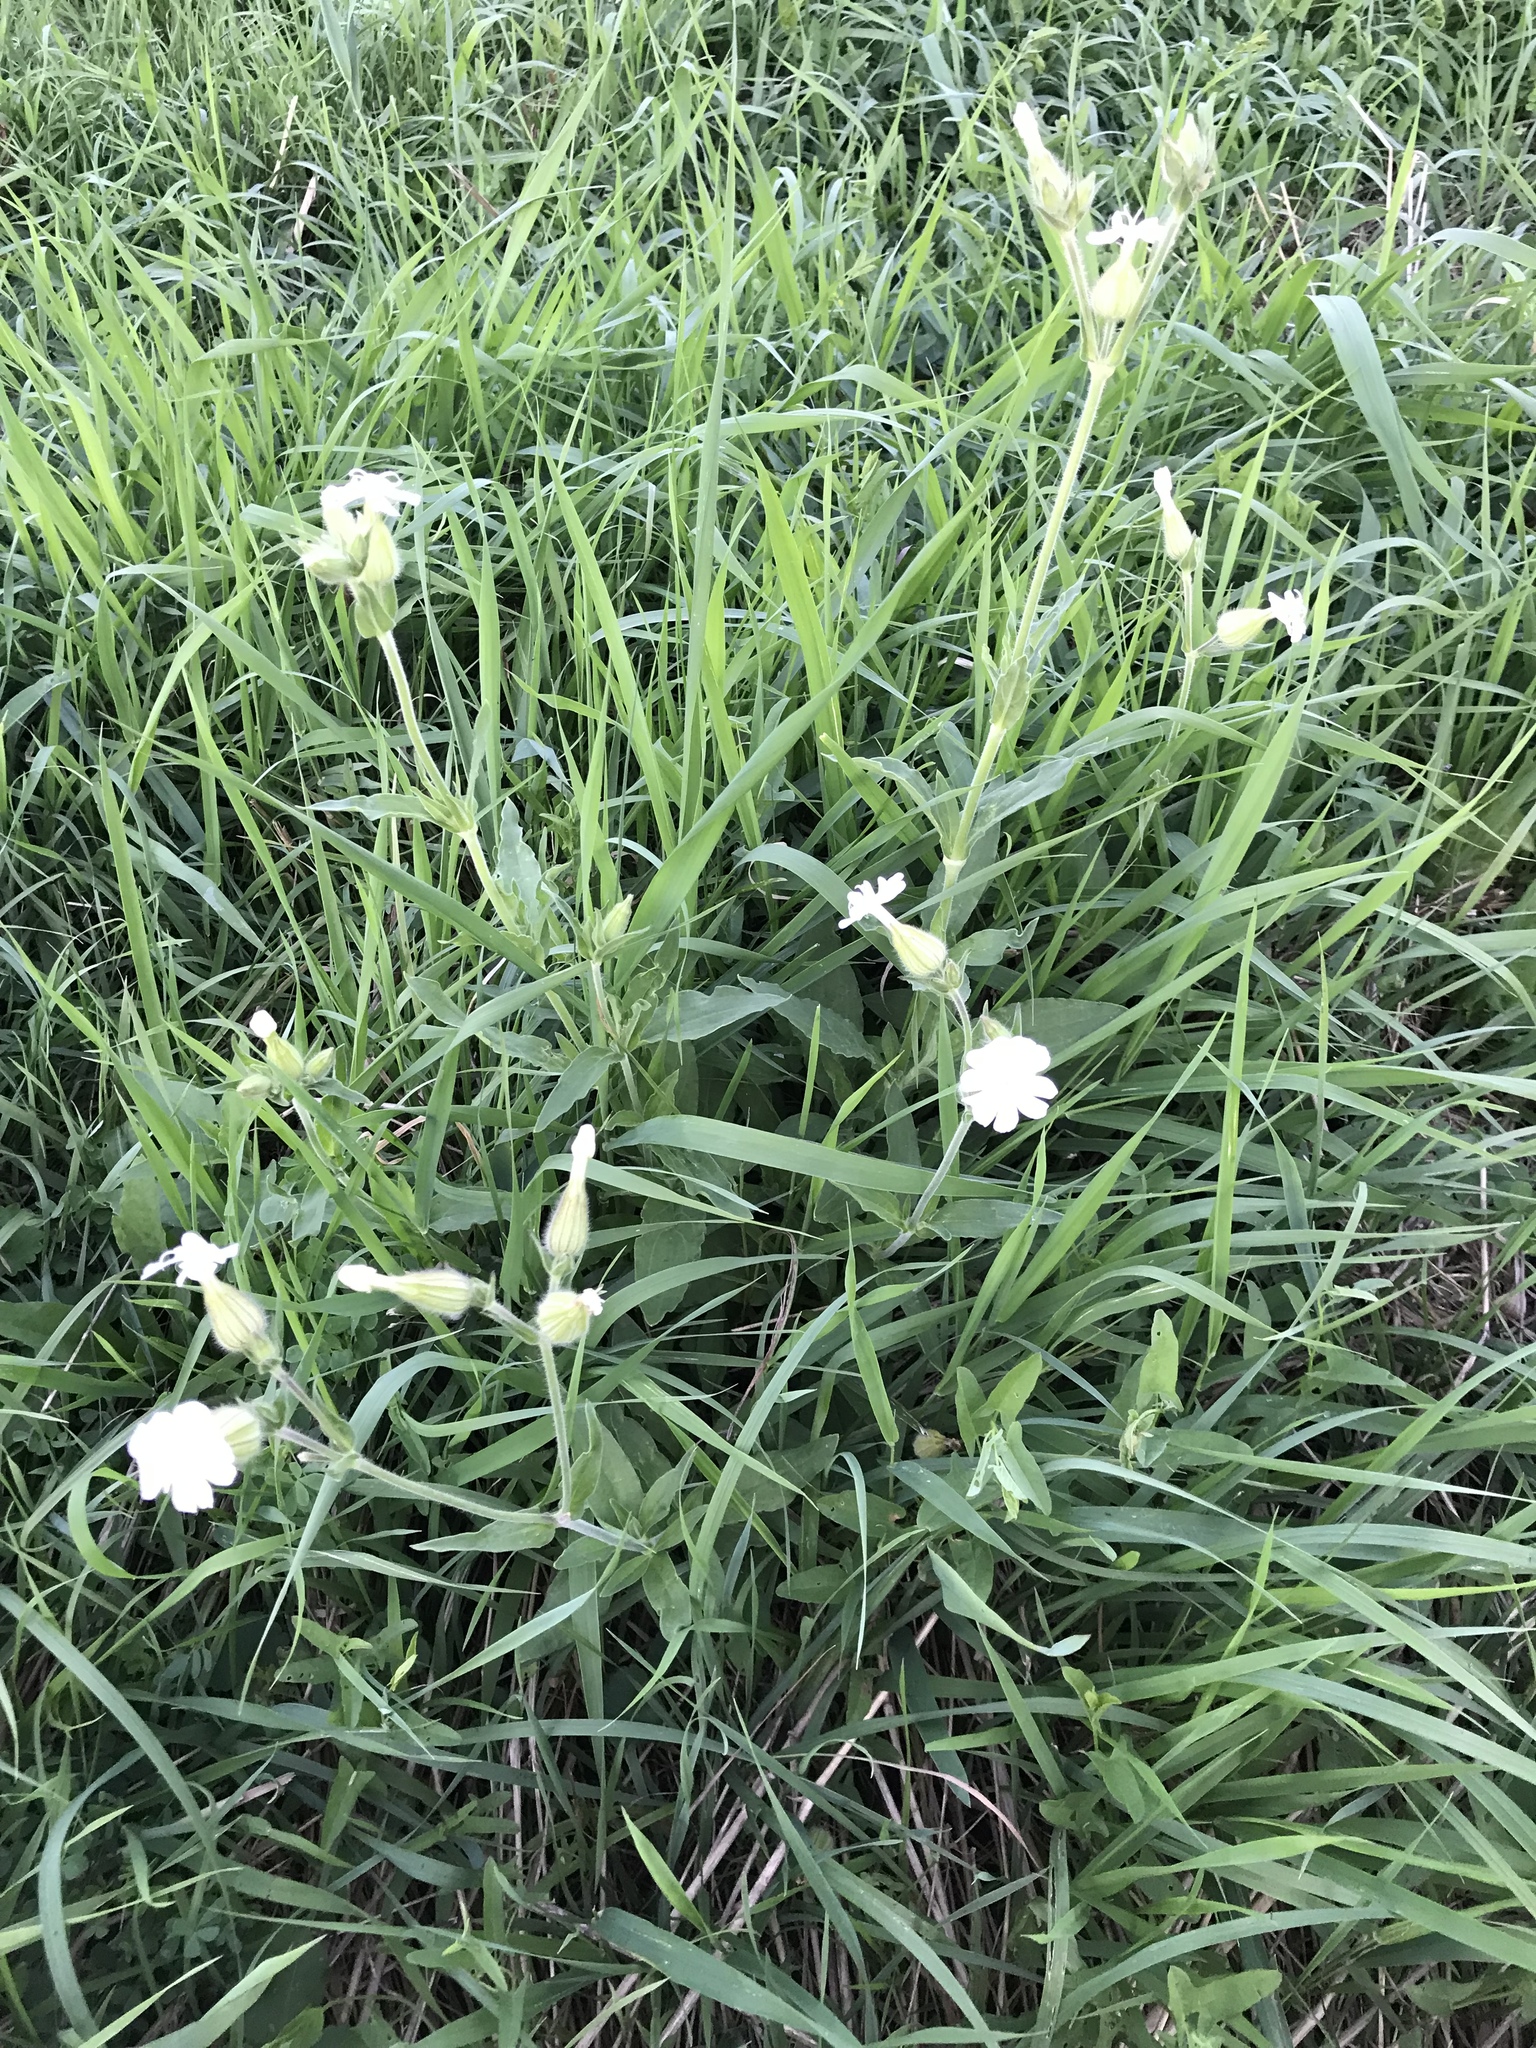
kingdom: Plantae
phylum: Tracheophyta
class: Magnoliopsida
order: Caryophyllales
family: Caryophyllaceae
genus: Silene
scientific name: Silene latifolia
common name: White campion
